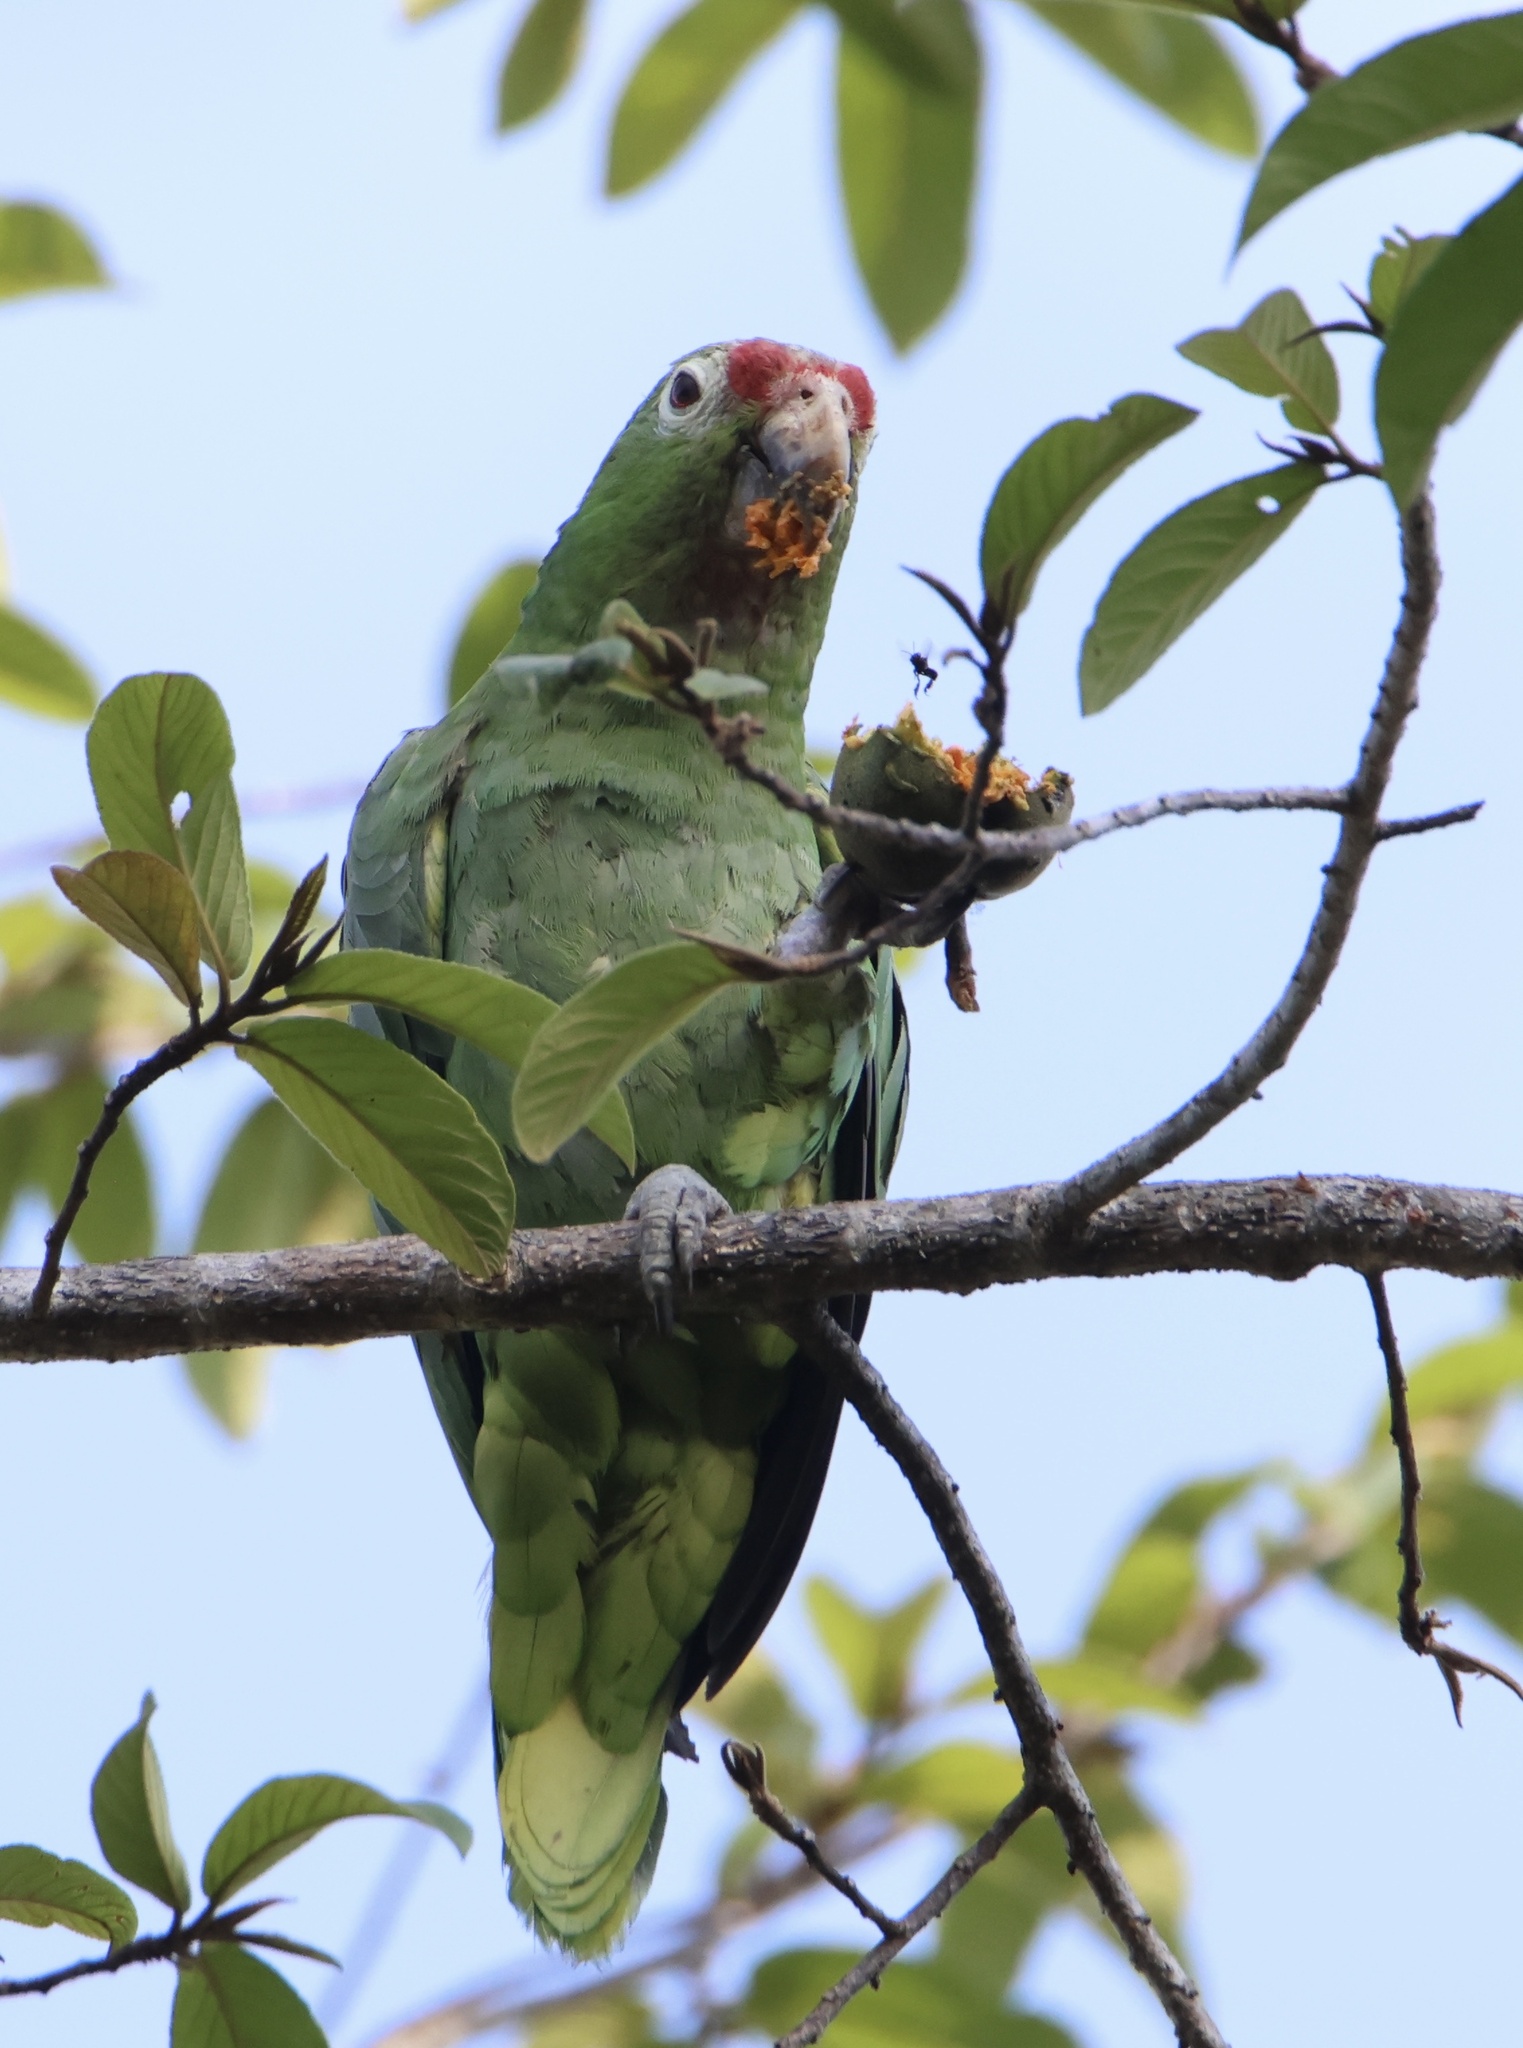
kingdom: Animalia
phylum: Chordata
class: Aves
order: Psittaciformes
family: Psittacidae
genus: Amazona
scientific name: Amazona autumnalis
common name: Red-lored amazon
